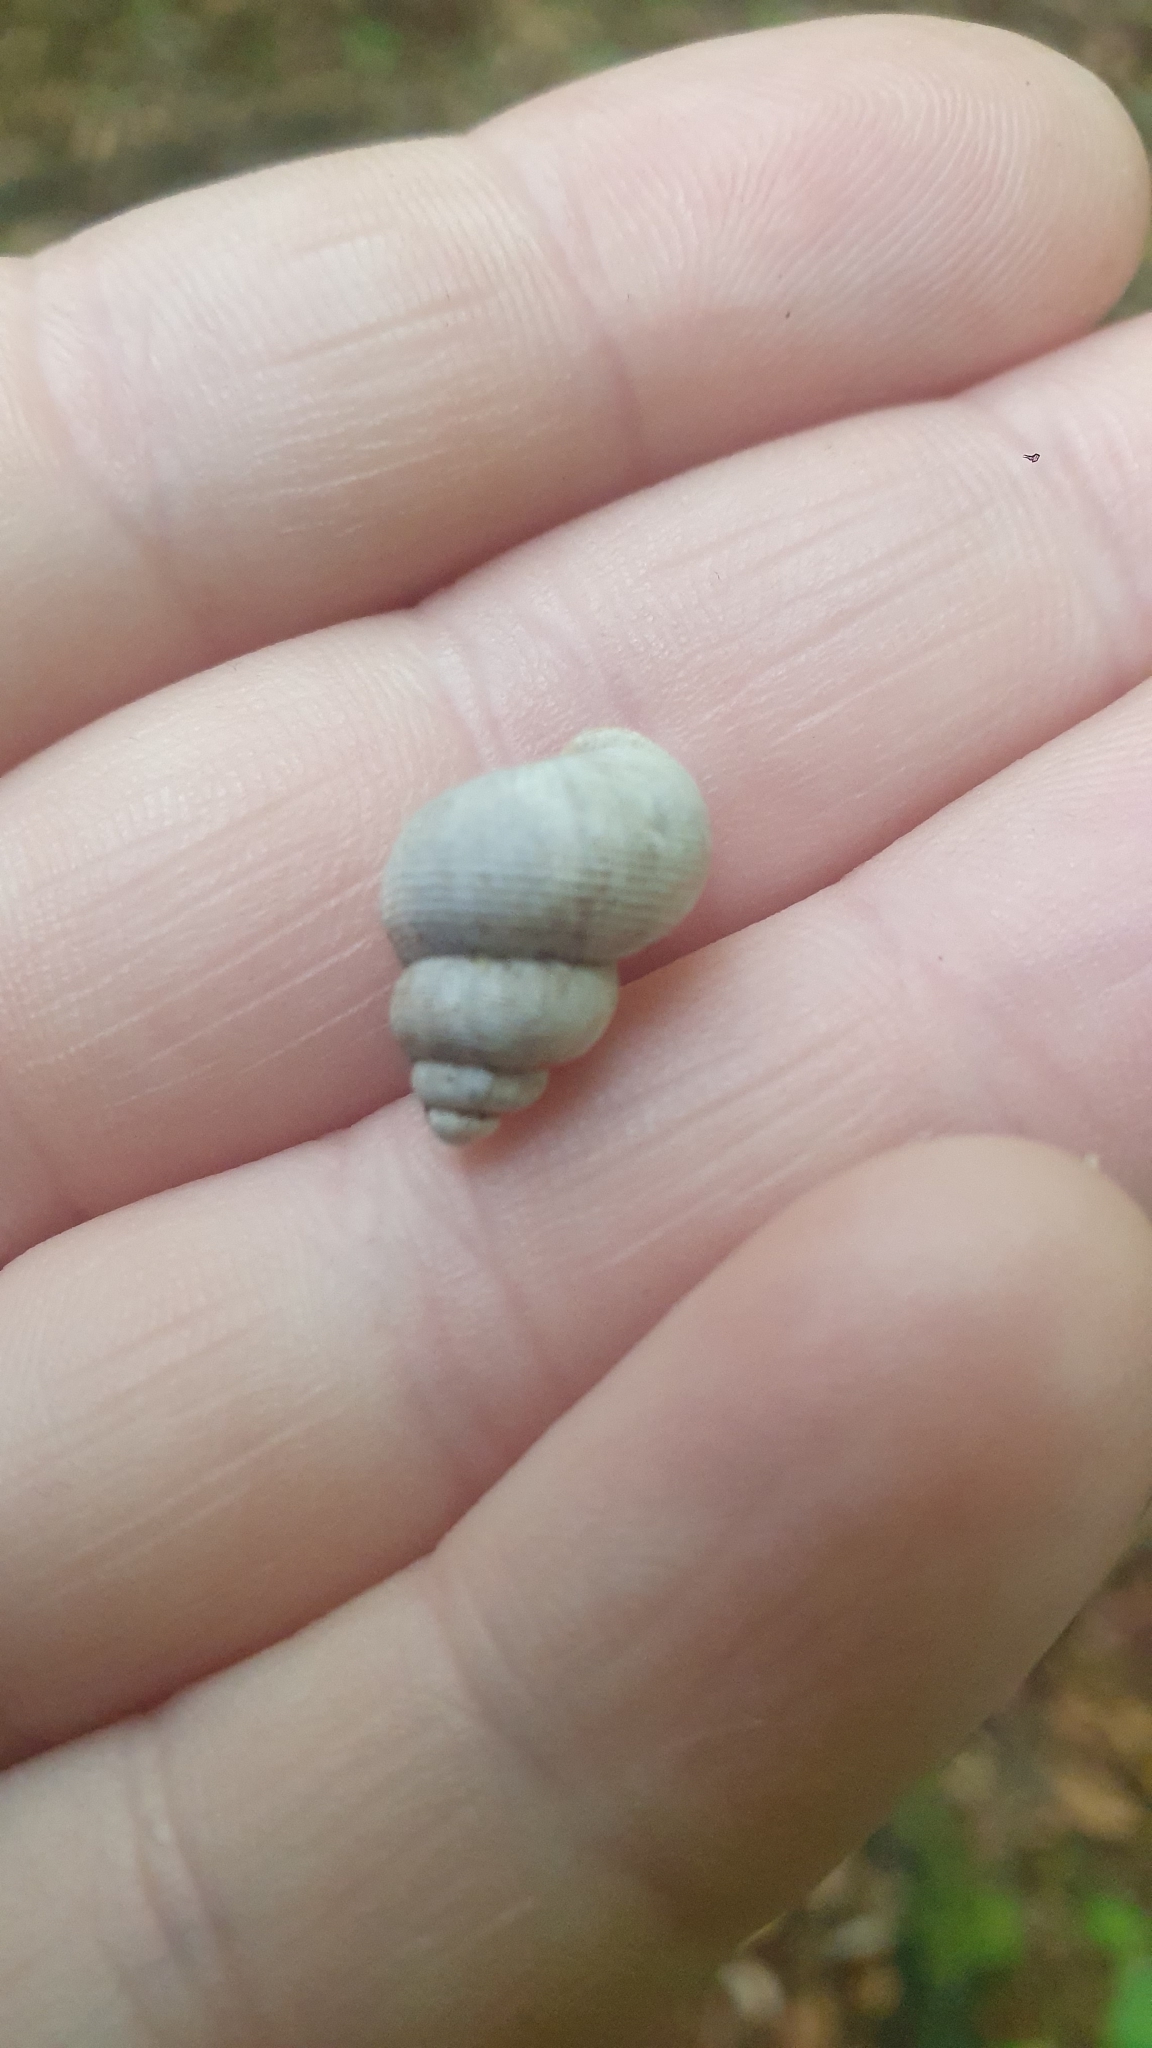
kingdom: Animalia
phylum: Mollusca
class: Gastropoda
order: Littorinimorpha
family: Pomatiidae
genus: Pomatias
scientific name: Pomatias elegans
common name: Red-mouthed snail
